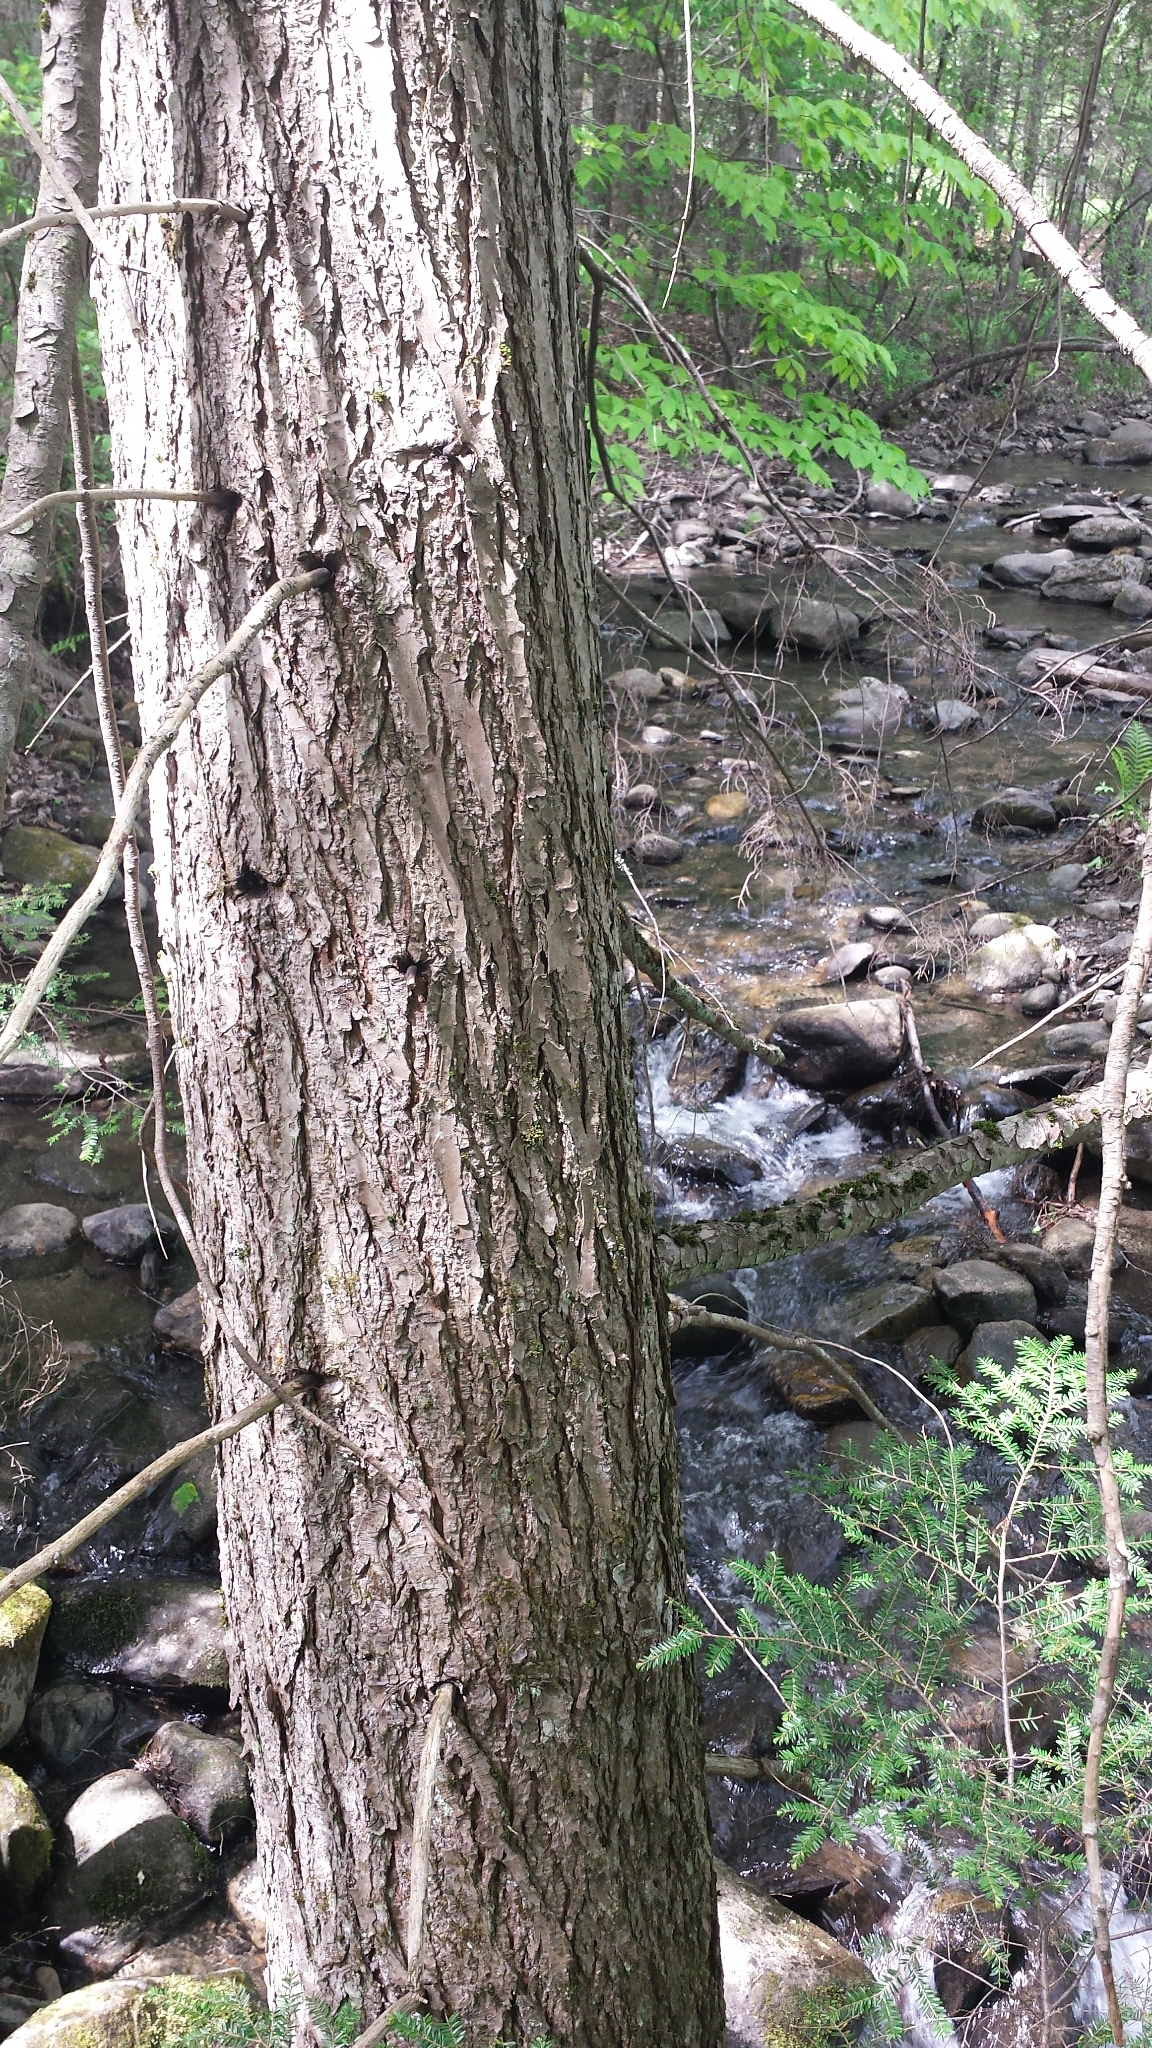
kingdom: Plantae
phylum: Tracheophyta
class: Pinopsida
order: Pinales
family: Pinaceae
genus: Tsuga
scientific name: Tsuga canadensis
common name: Eastern hemlock
